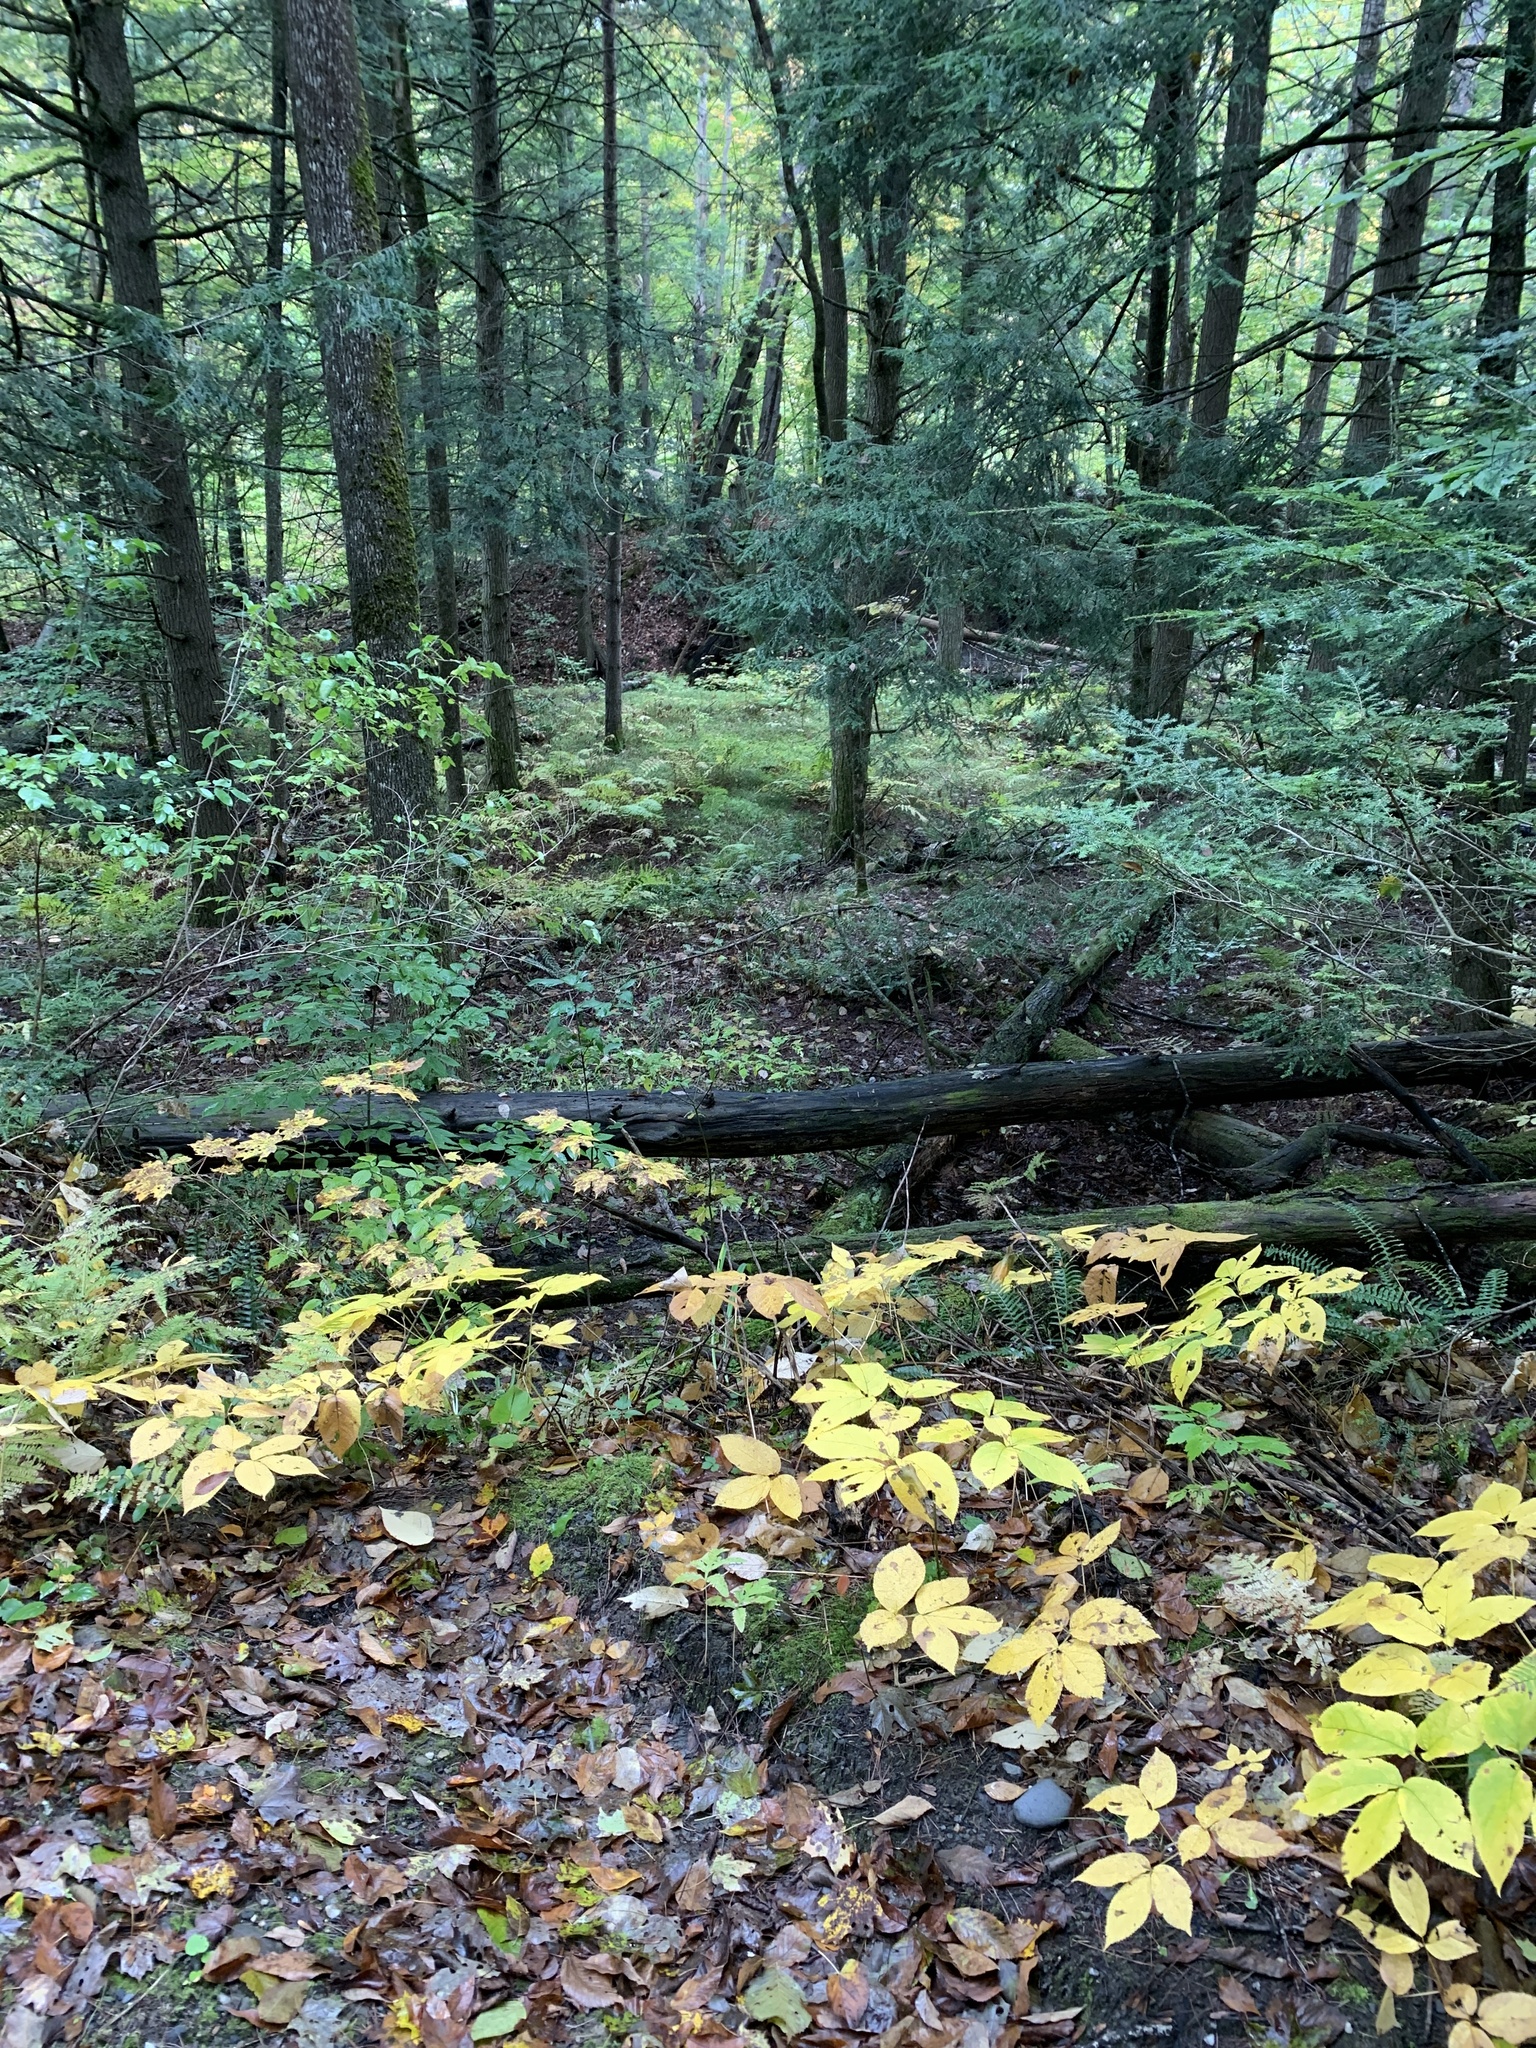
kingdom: Plantae
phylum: Tracheophyta
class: Magnoliopsida
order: Apiales
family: Araliaceae
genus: Aralia
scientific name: Aralia nudicaulis
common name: Wild sarsaparilla
